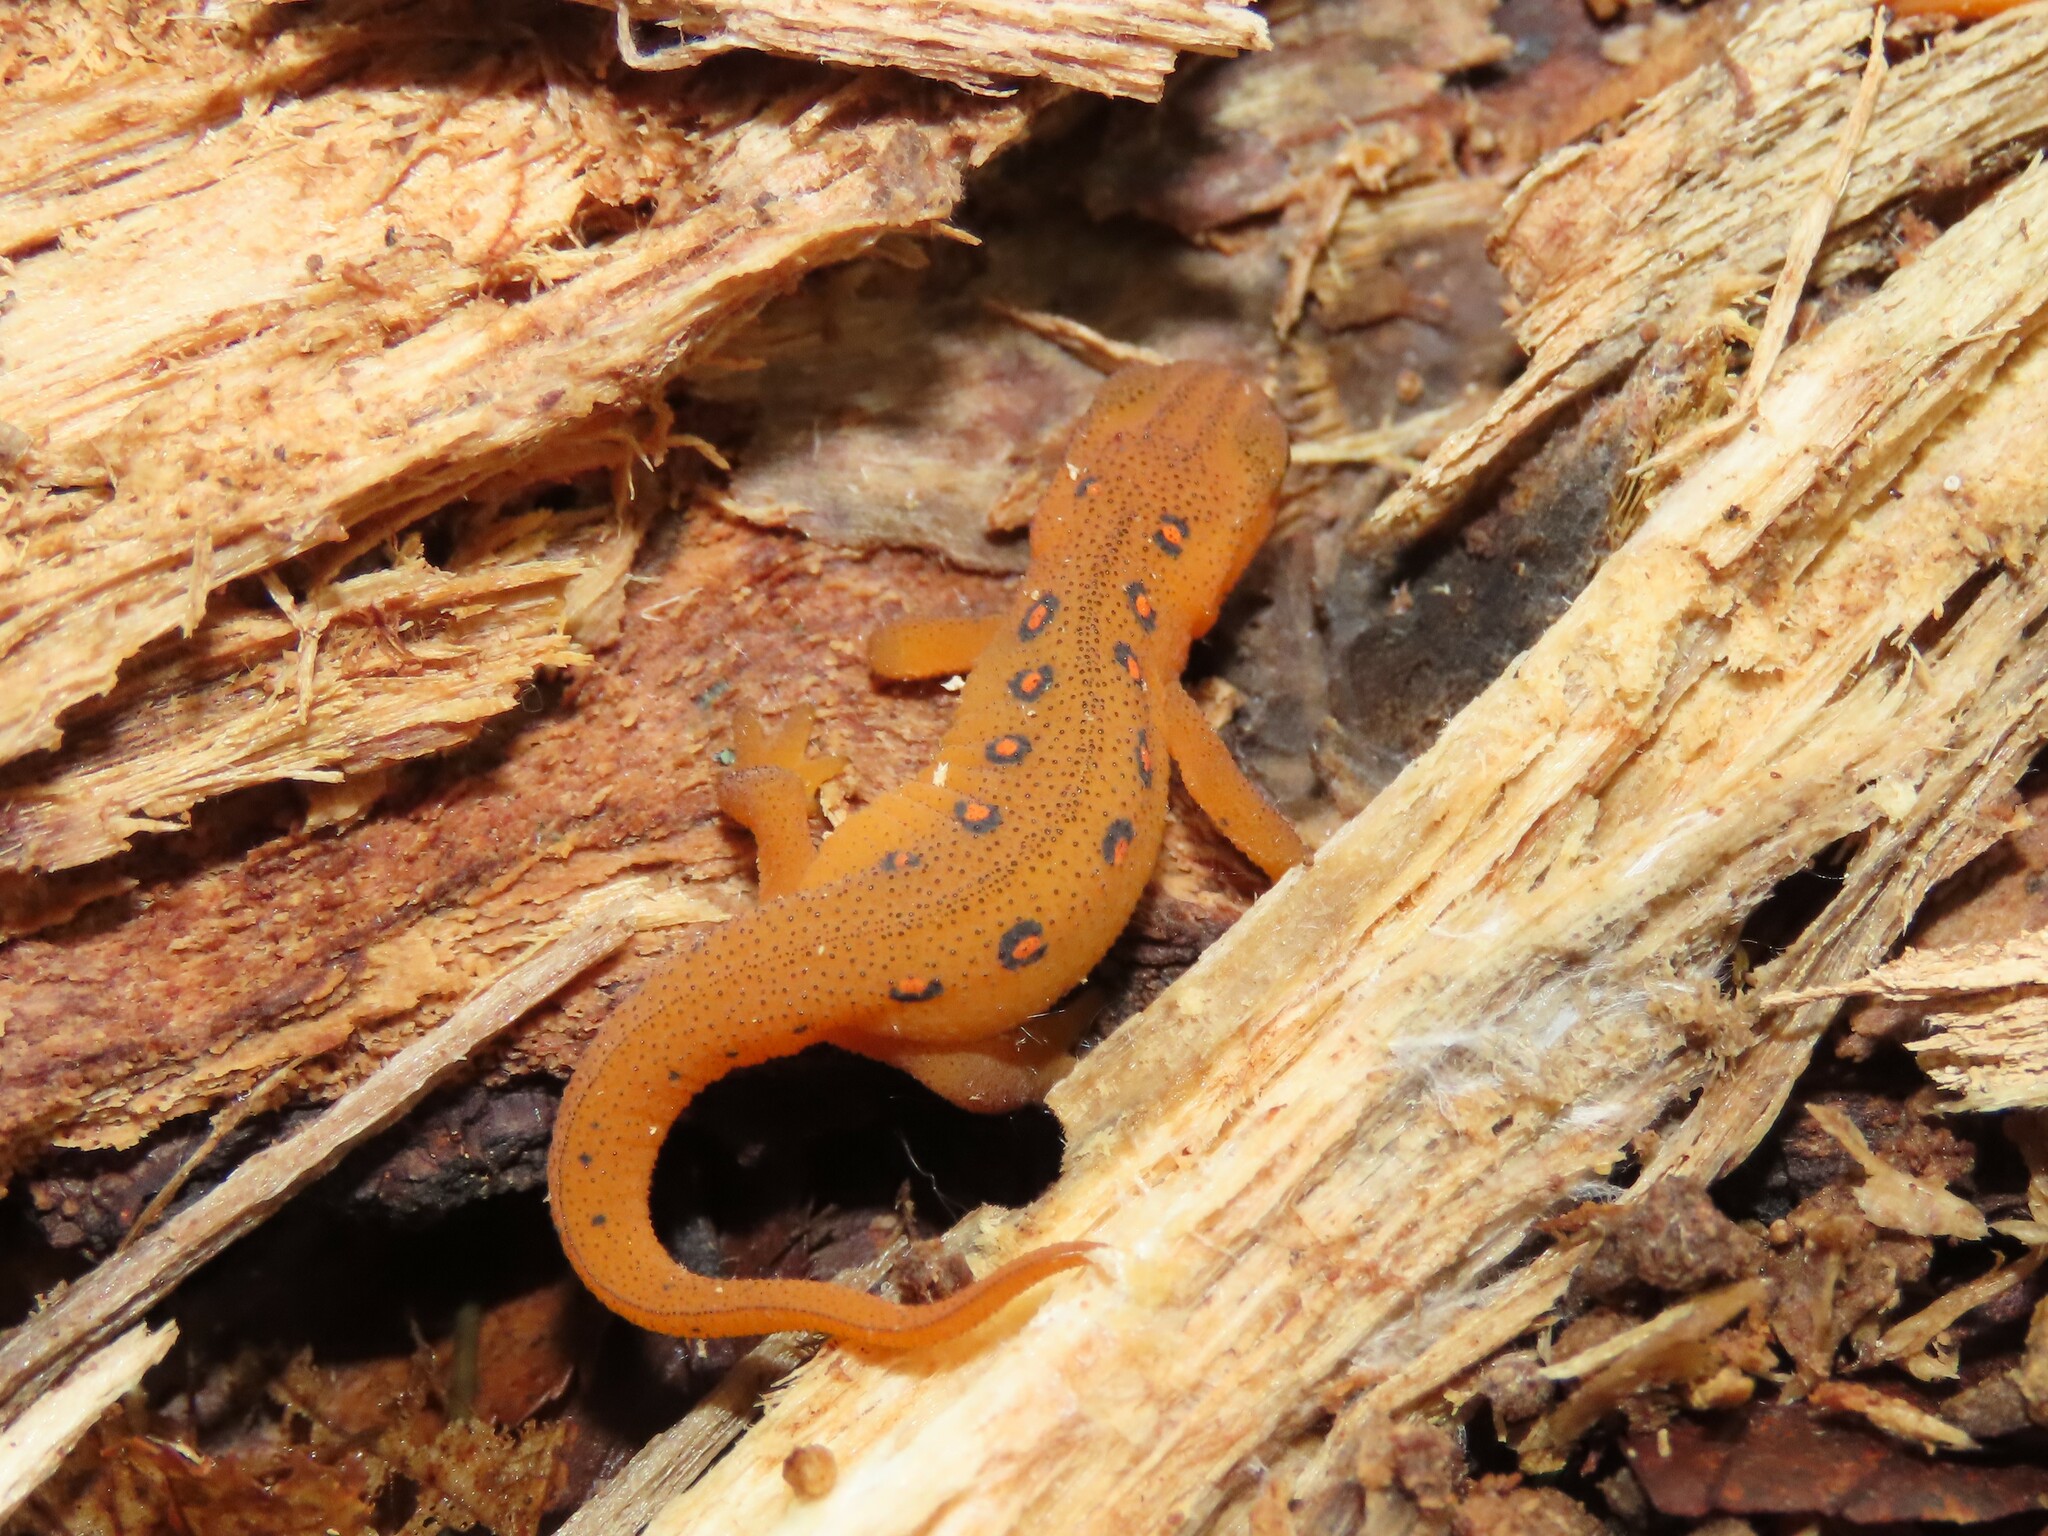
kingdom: Animalia
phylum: Chordata
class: Amphibia
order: Caudata
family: Salamandridae
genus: Notophthalmus
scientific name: Notophthalmus viridescens
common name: Eastern newt
